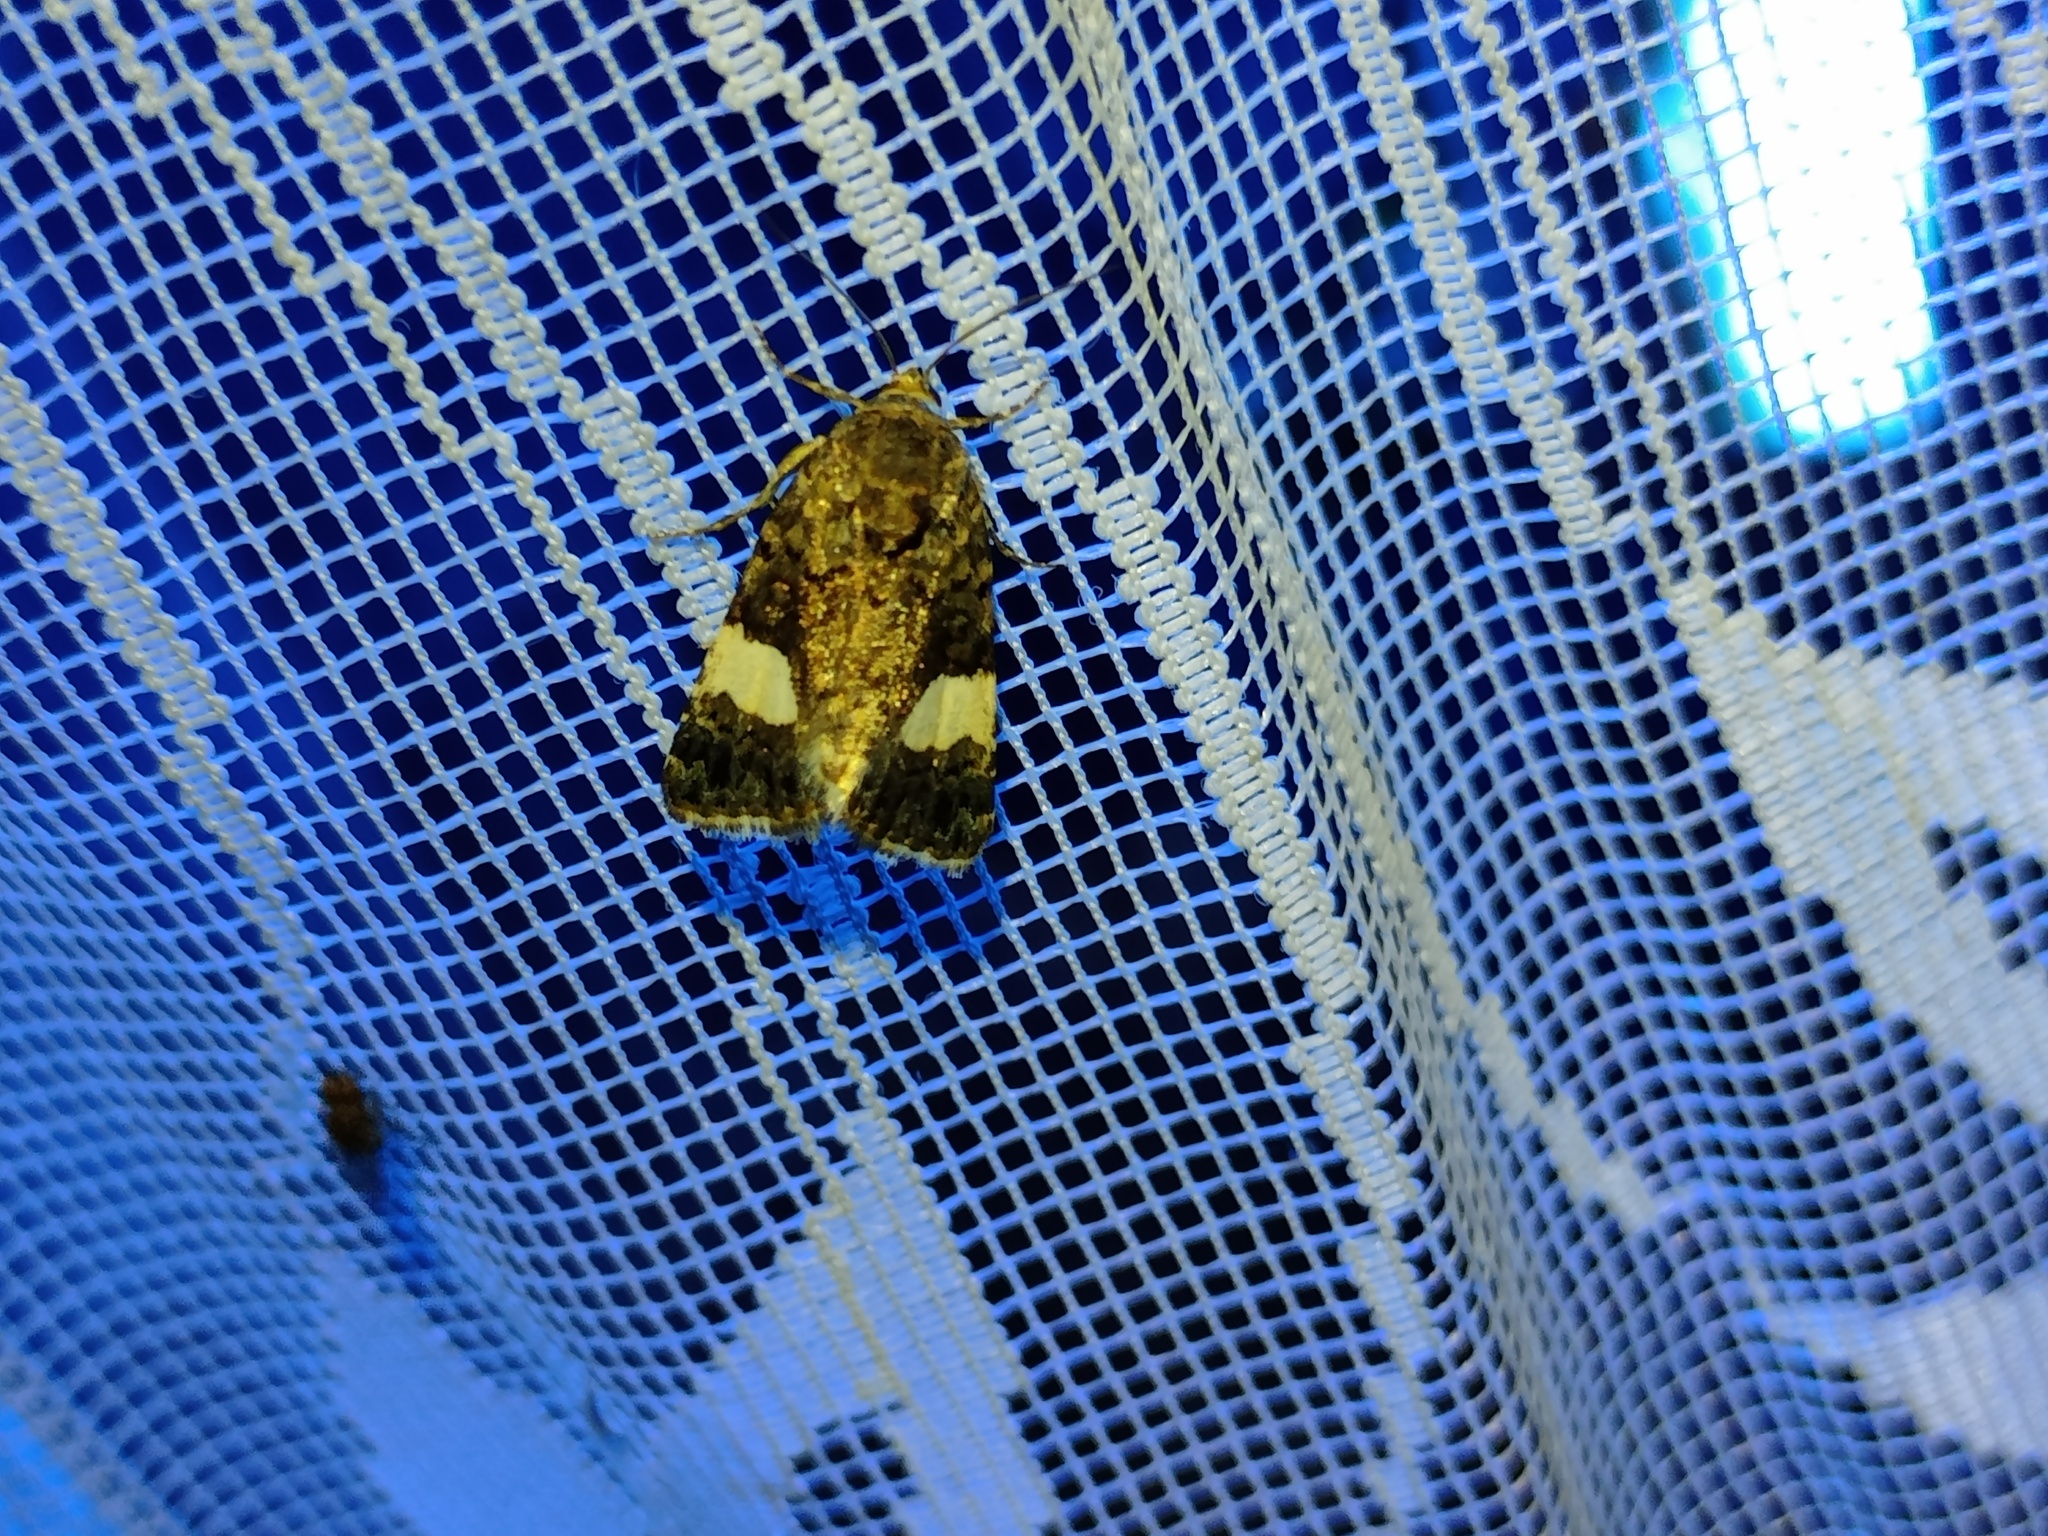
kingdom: Animalia
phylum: Arthropoda
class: Insecta
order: Lepidoptera
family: Erebidae
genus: Tyta
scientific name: Tyta luctuosa
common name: Four-spotted
